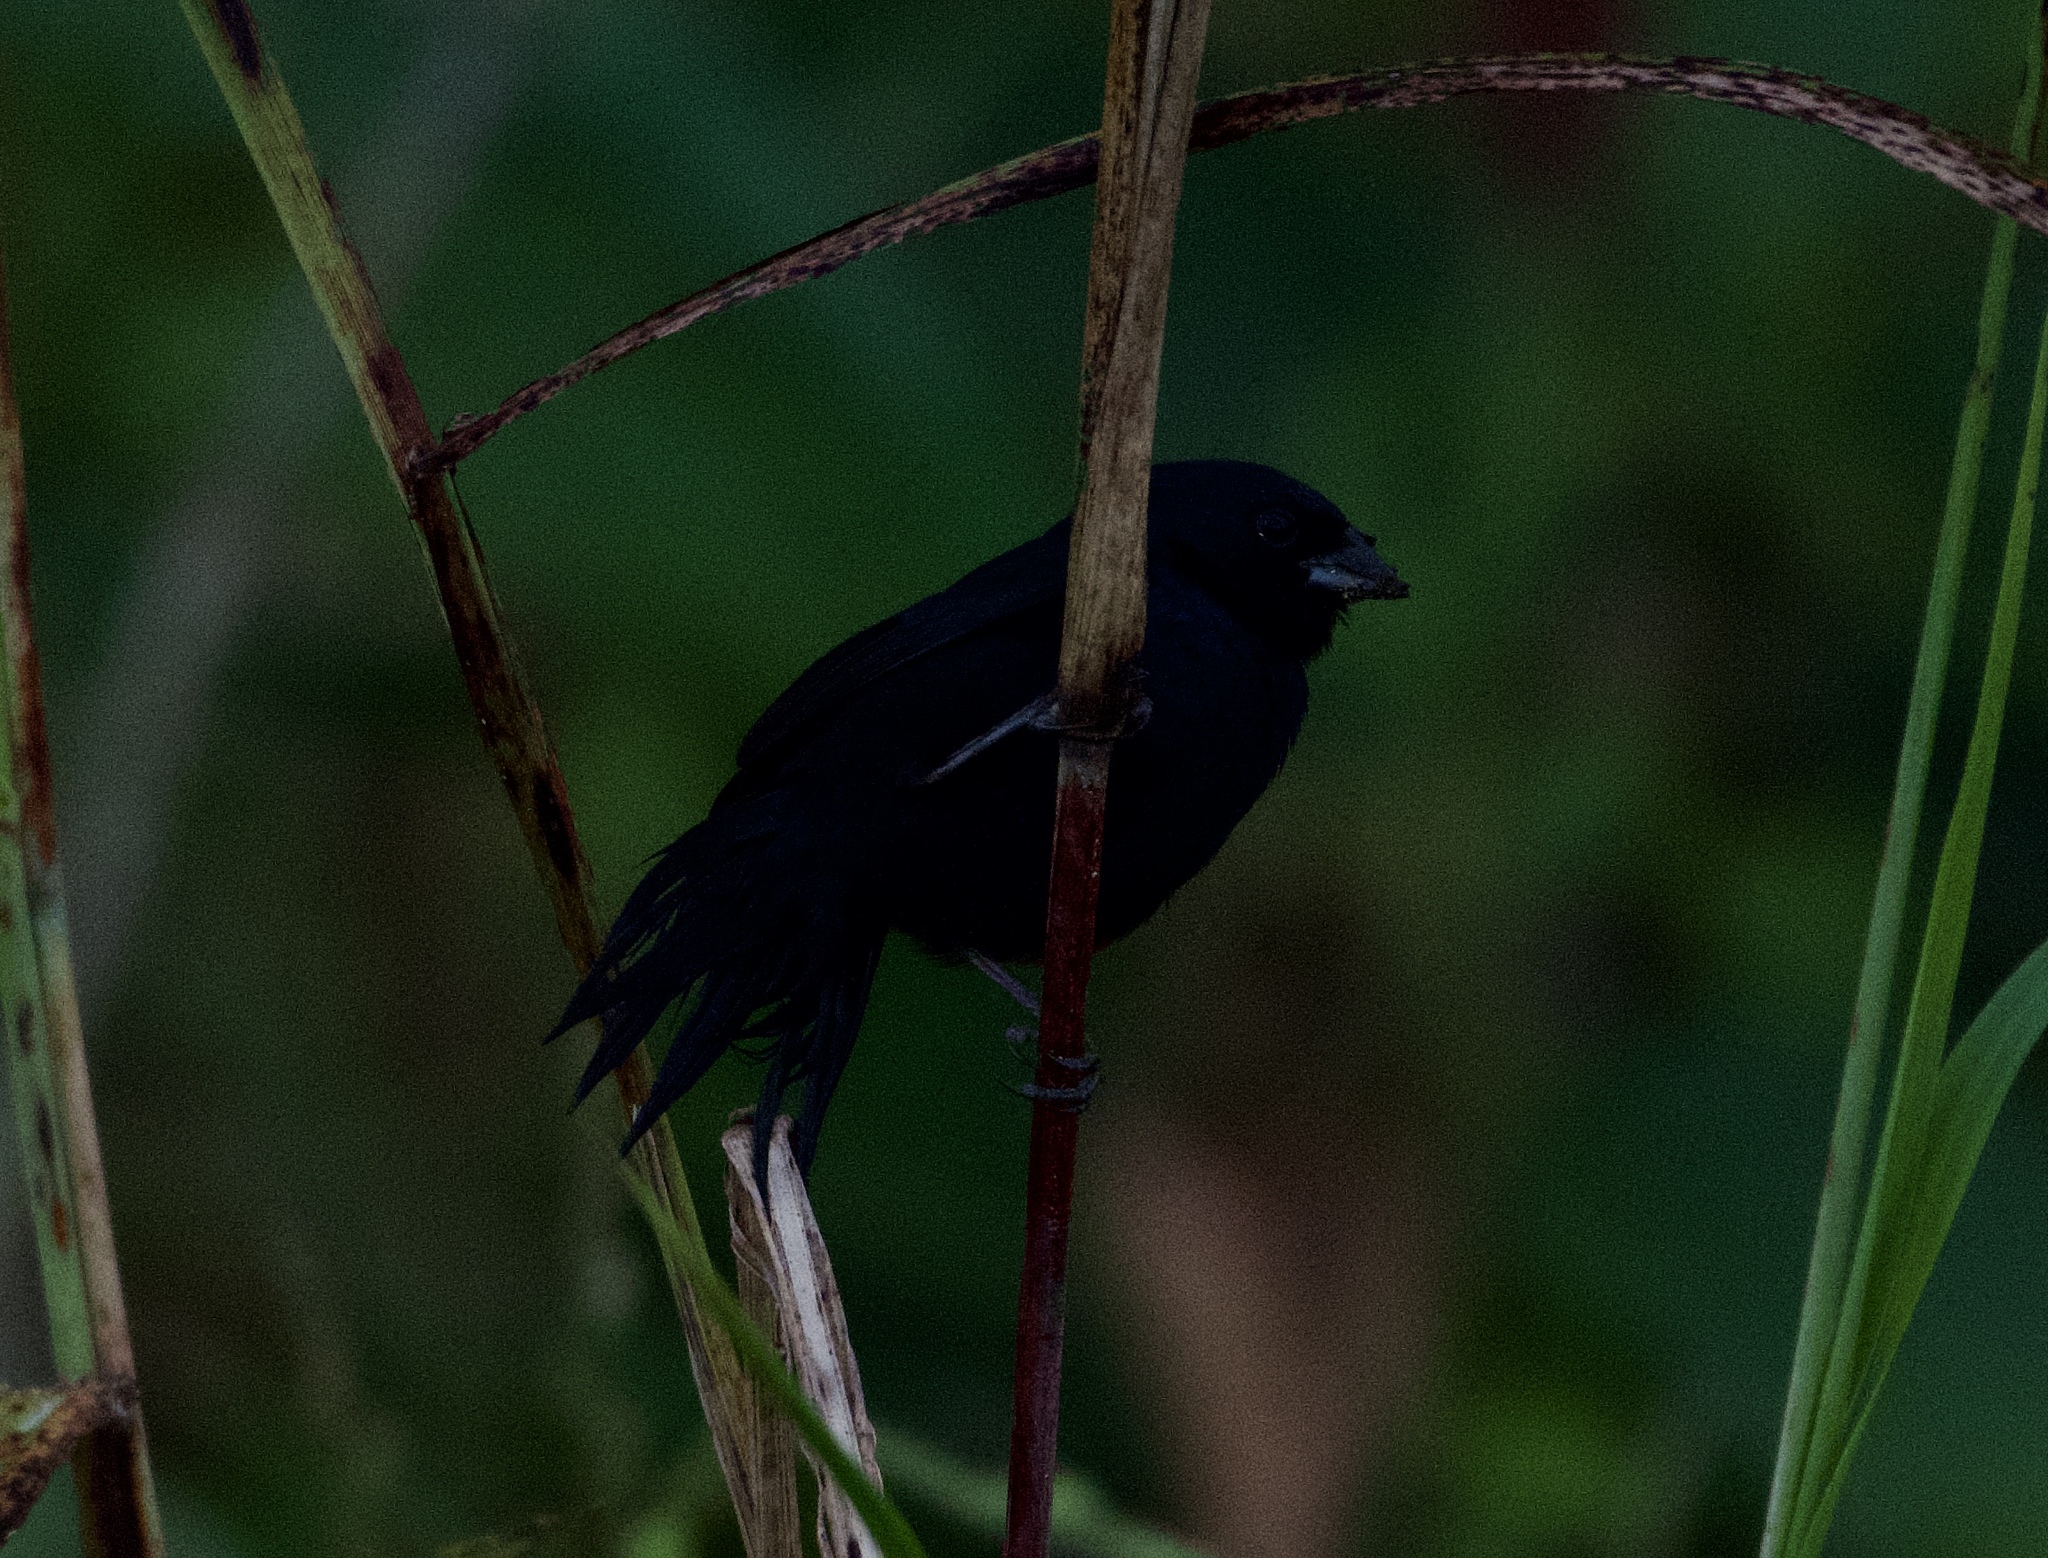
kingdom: Animalia
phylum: Chordata
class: Aves
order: Passeriformes
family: Thraupidae
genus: Volatinia
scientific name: Volatinia jacarina
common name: Blue-black grassquit
